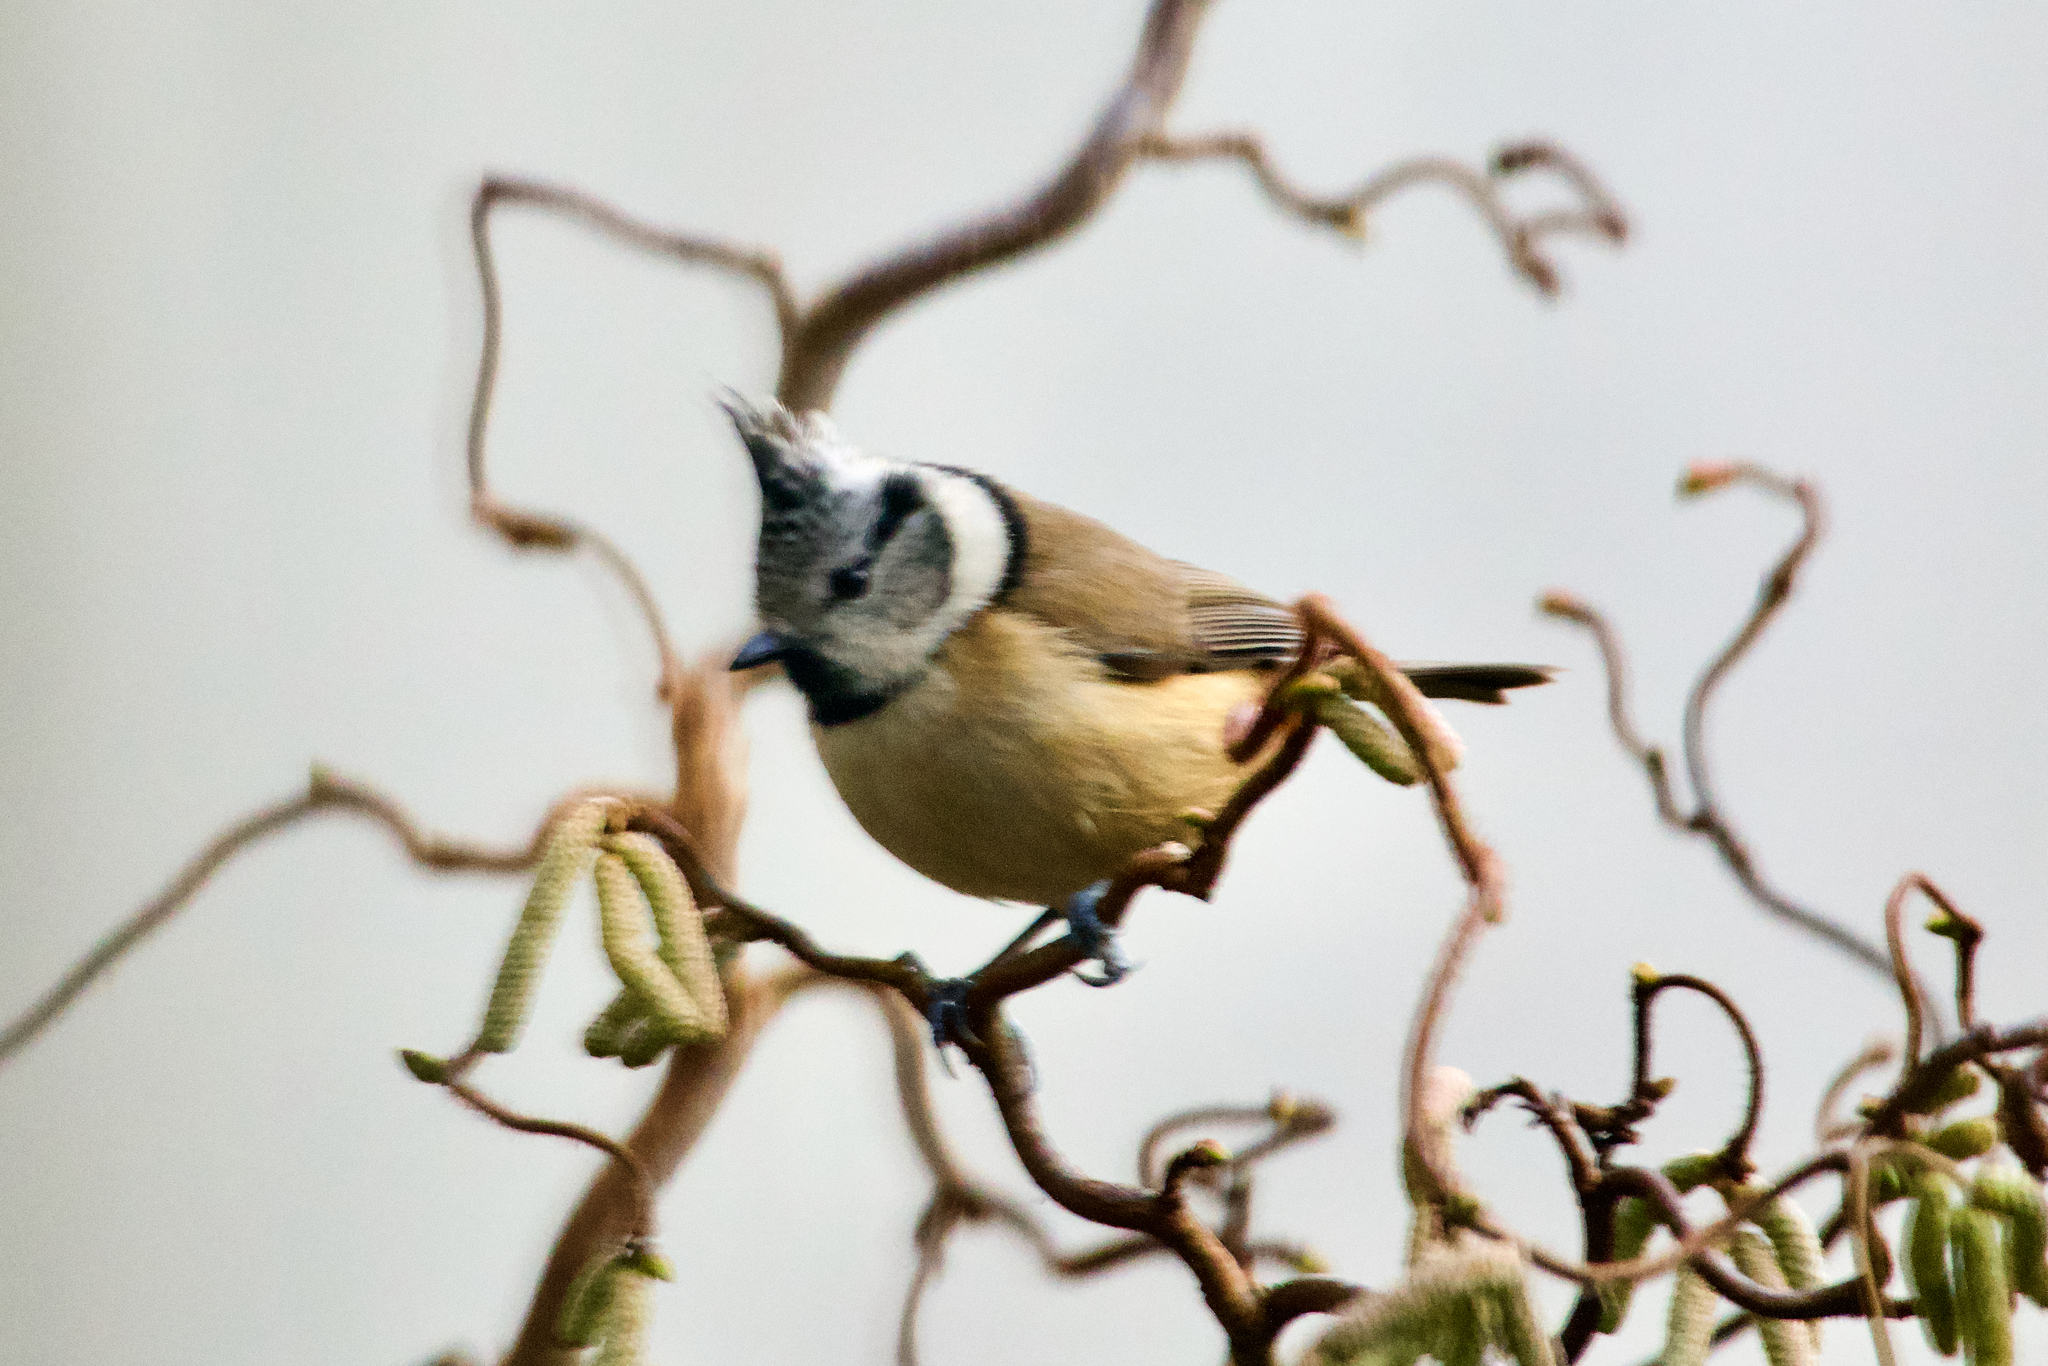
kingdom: Animalia
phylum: Chordata
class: Aves
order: Passeriformes
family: Paridae
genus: Lophophanes
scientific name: Lophophanes cristatus
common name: European crested tit
